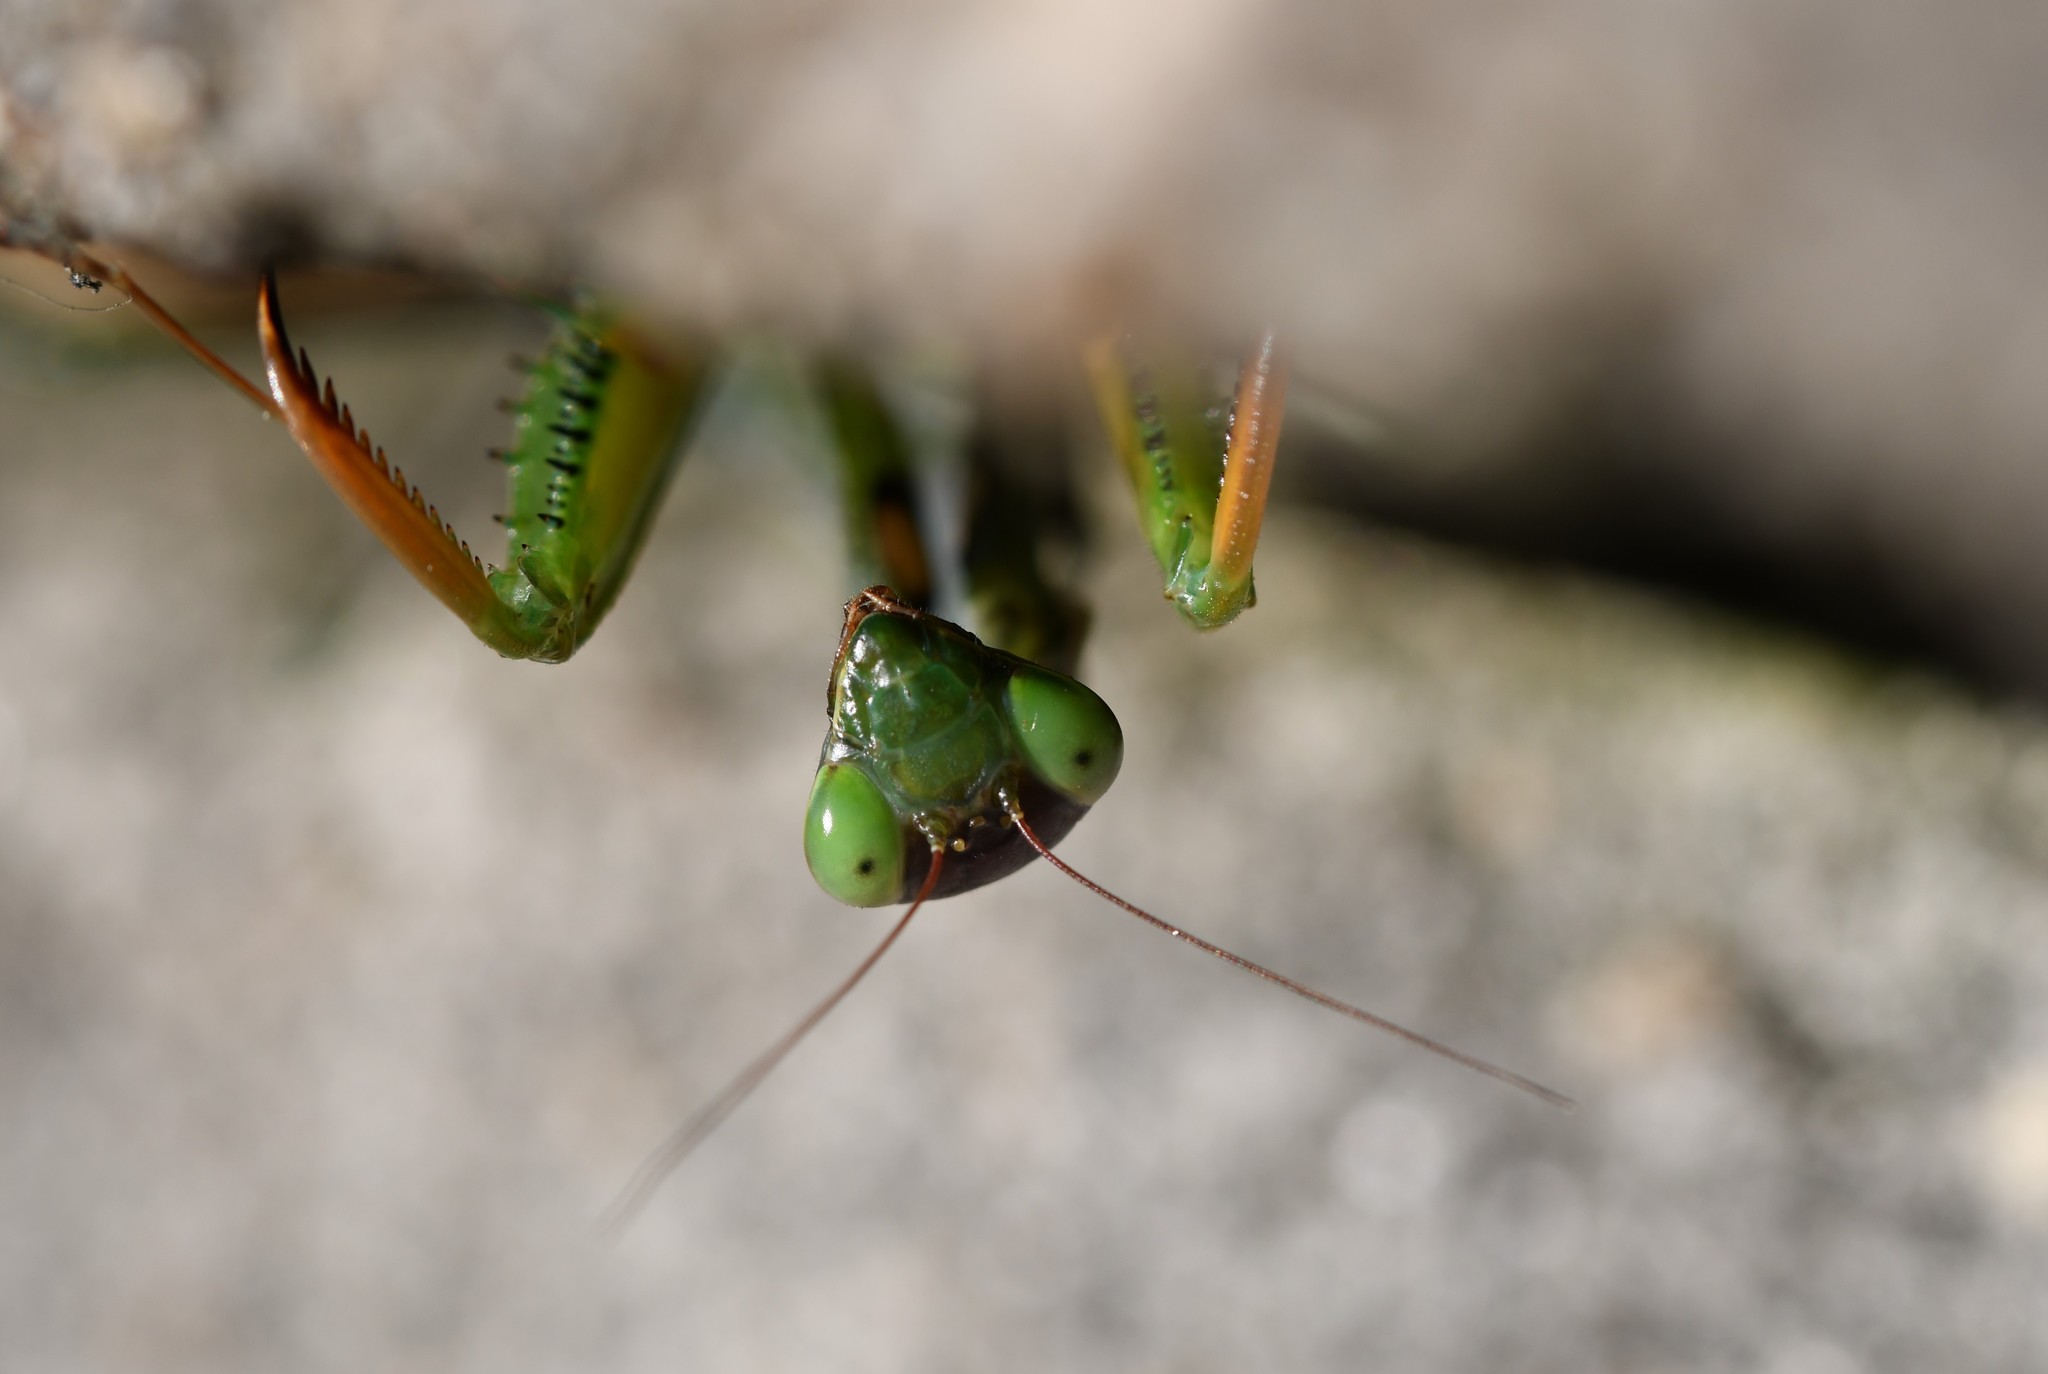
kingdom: Animalia
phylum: Arthropoda
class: Insecta
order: Mantodea
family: Mantidae
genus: Mantis
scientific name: Mantis religiosa
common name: Praying mantis
